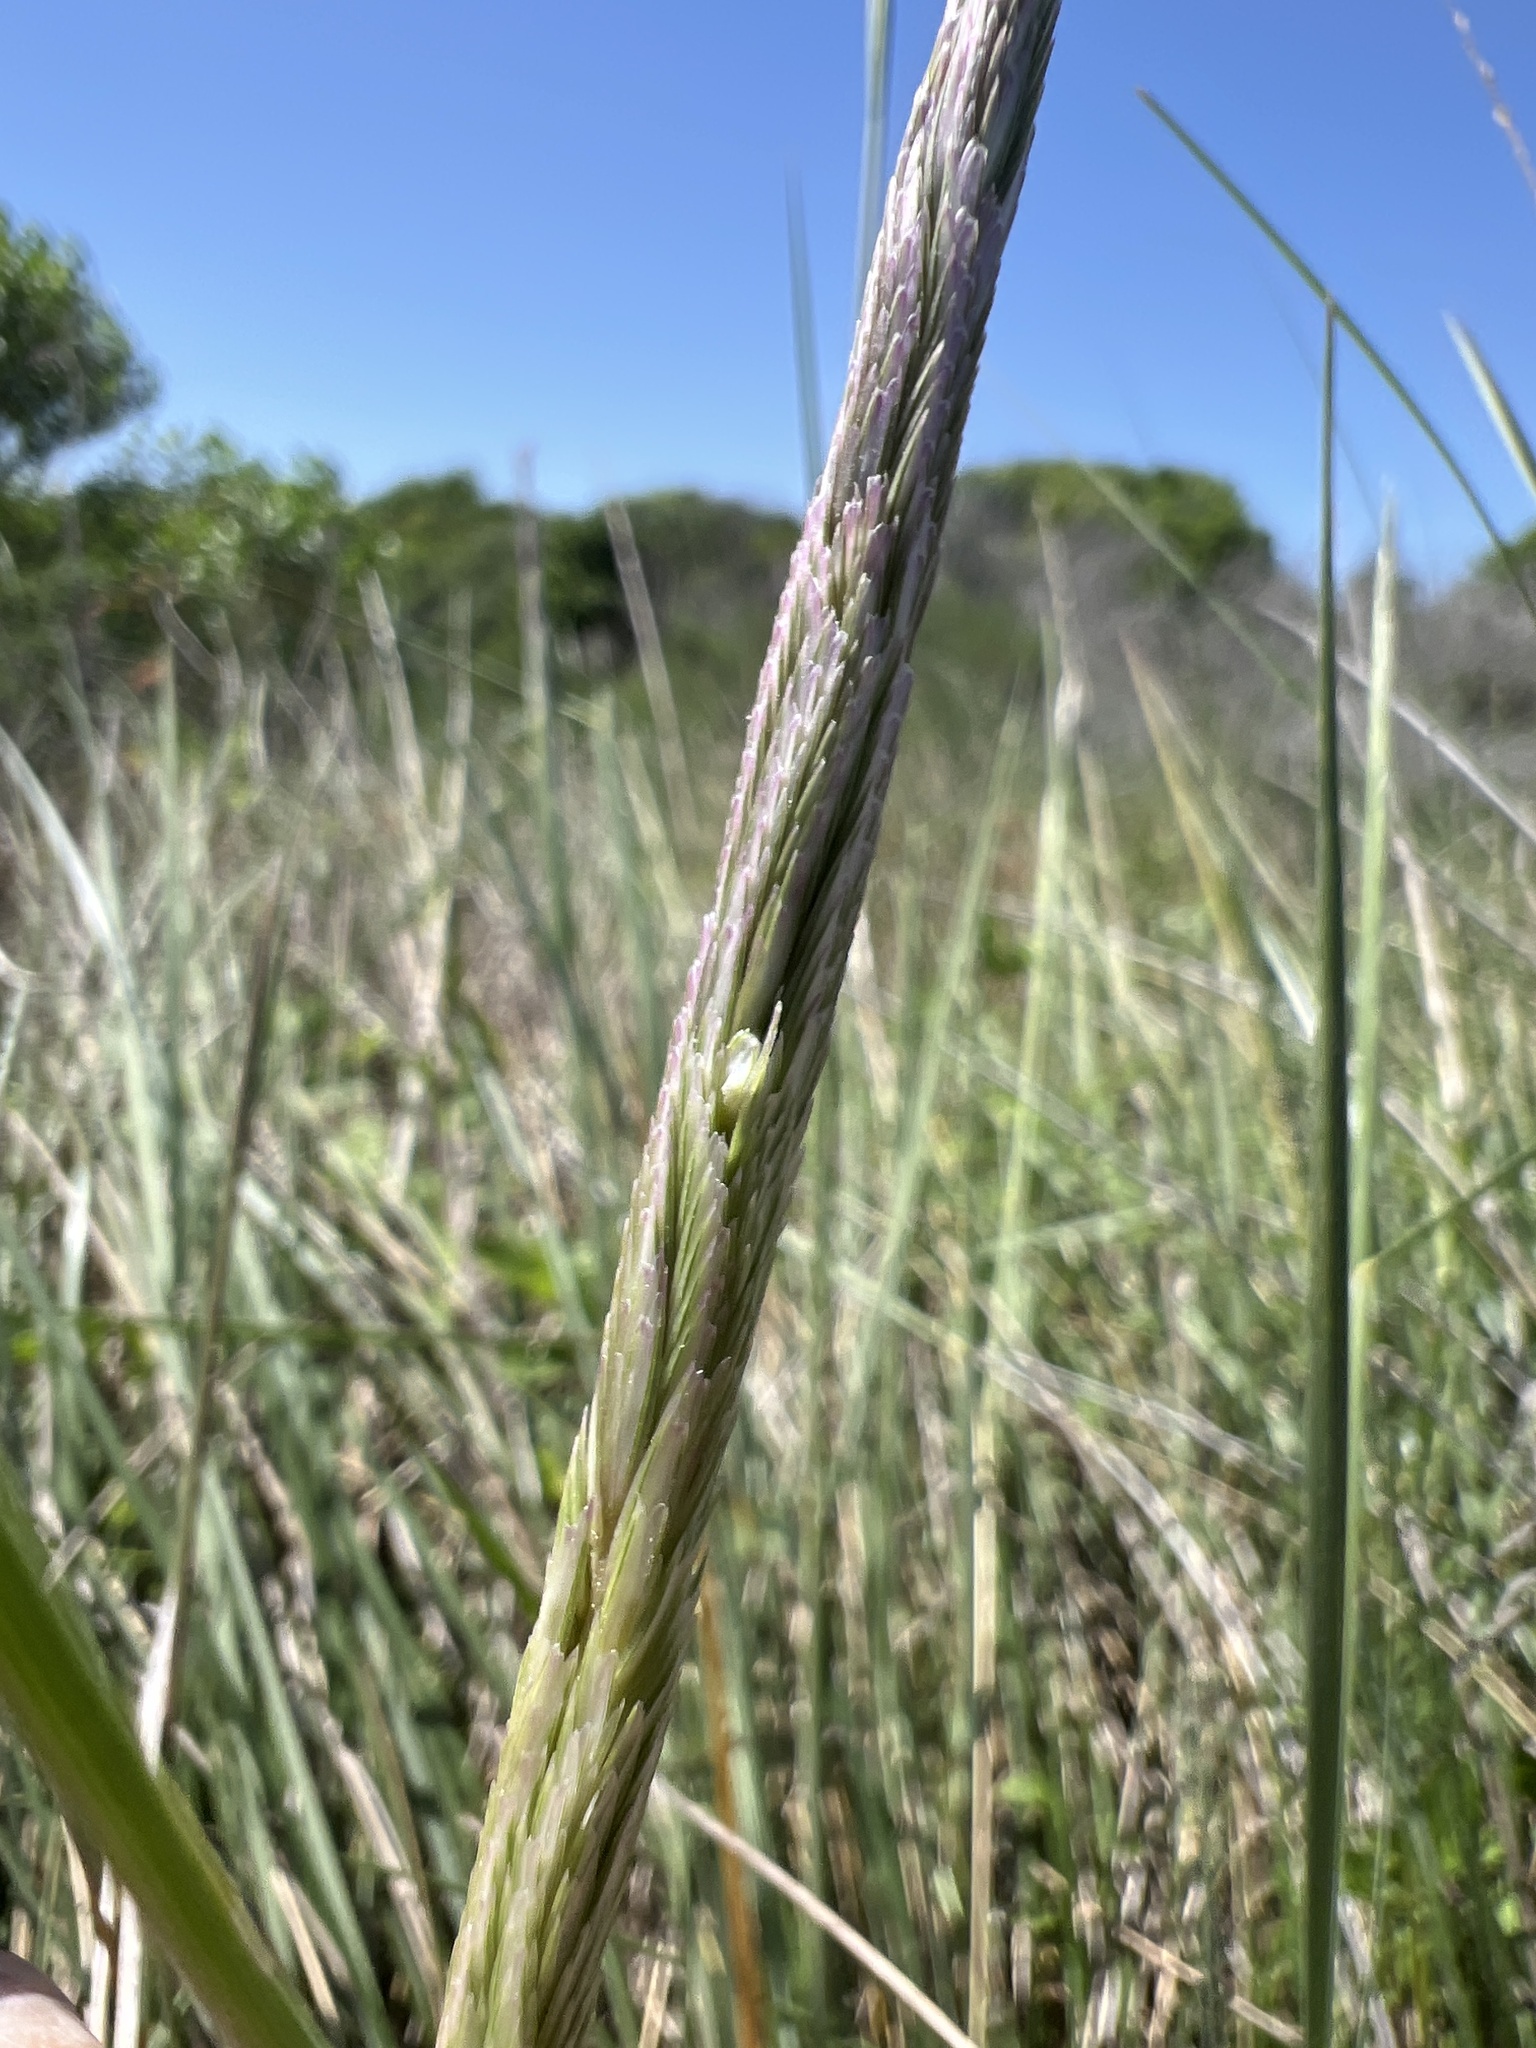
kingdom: Plantae
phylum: Tracheophyta
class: Liliopsida
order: Poales
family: Poaceae
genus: Sporobolus
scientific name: Sporobolus spartinae
